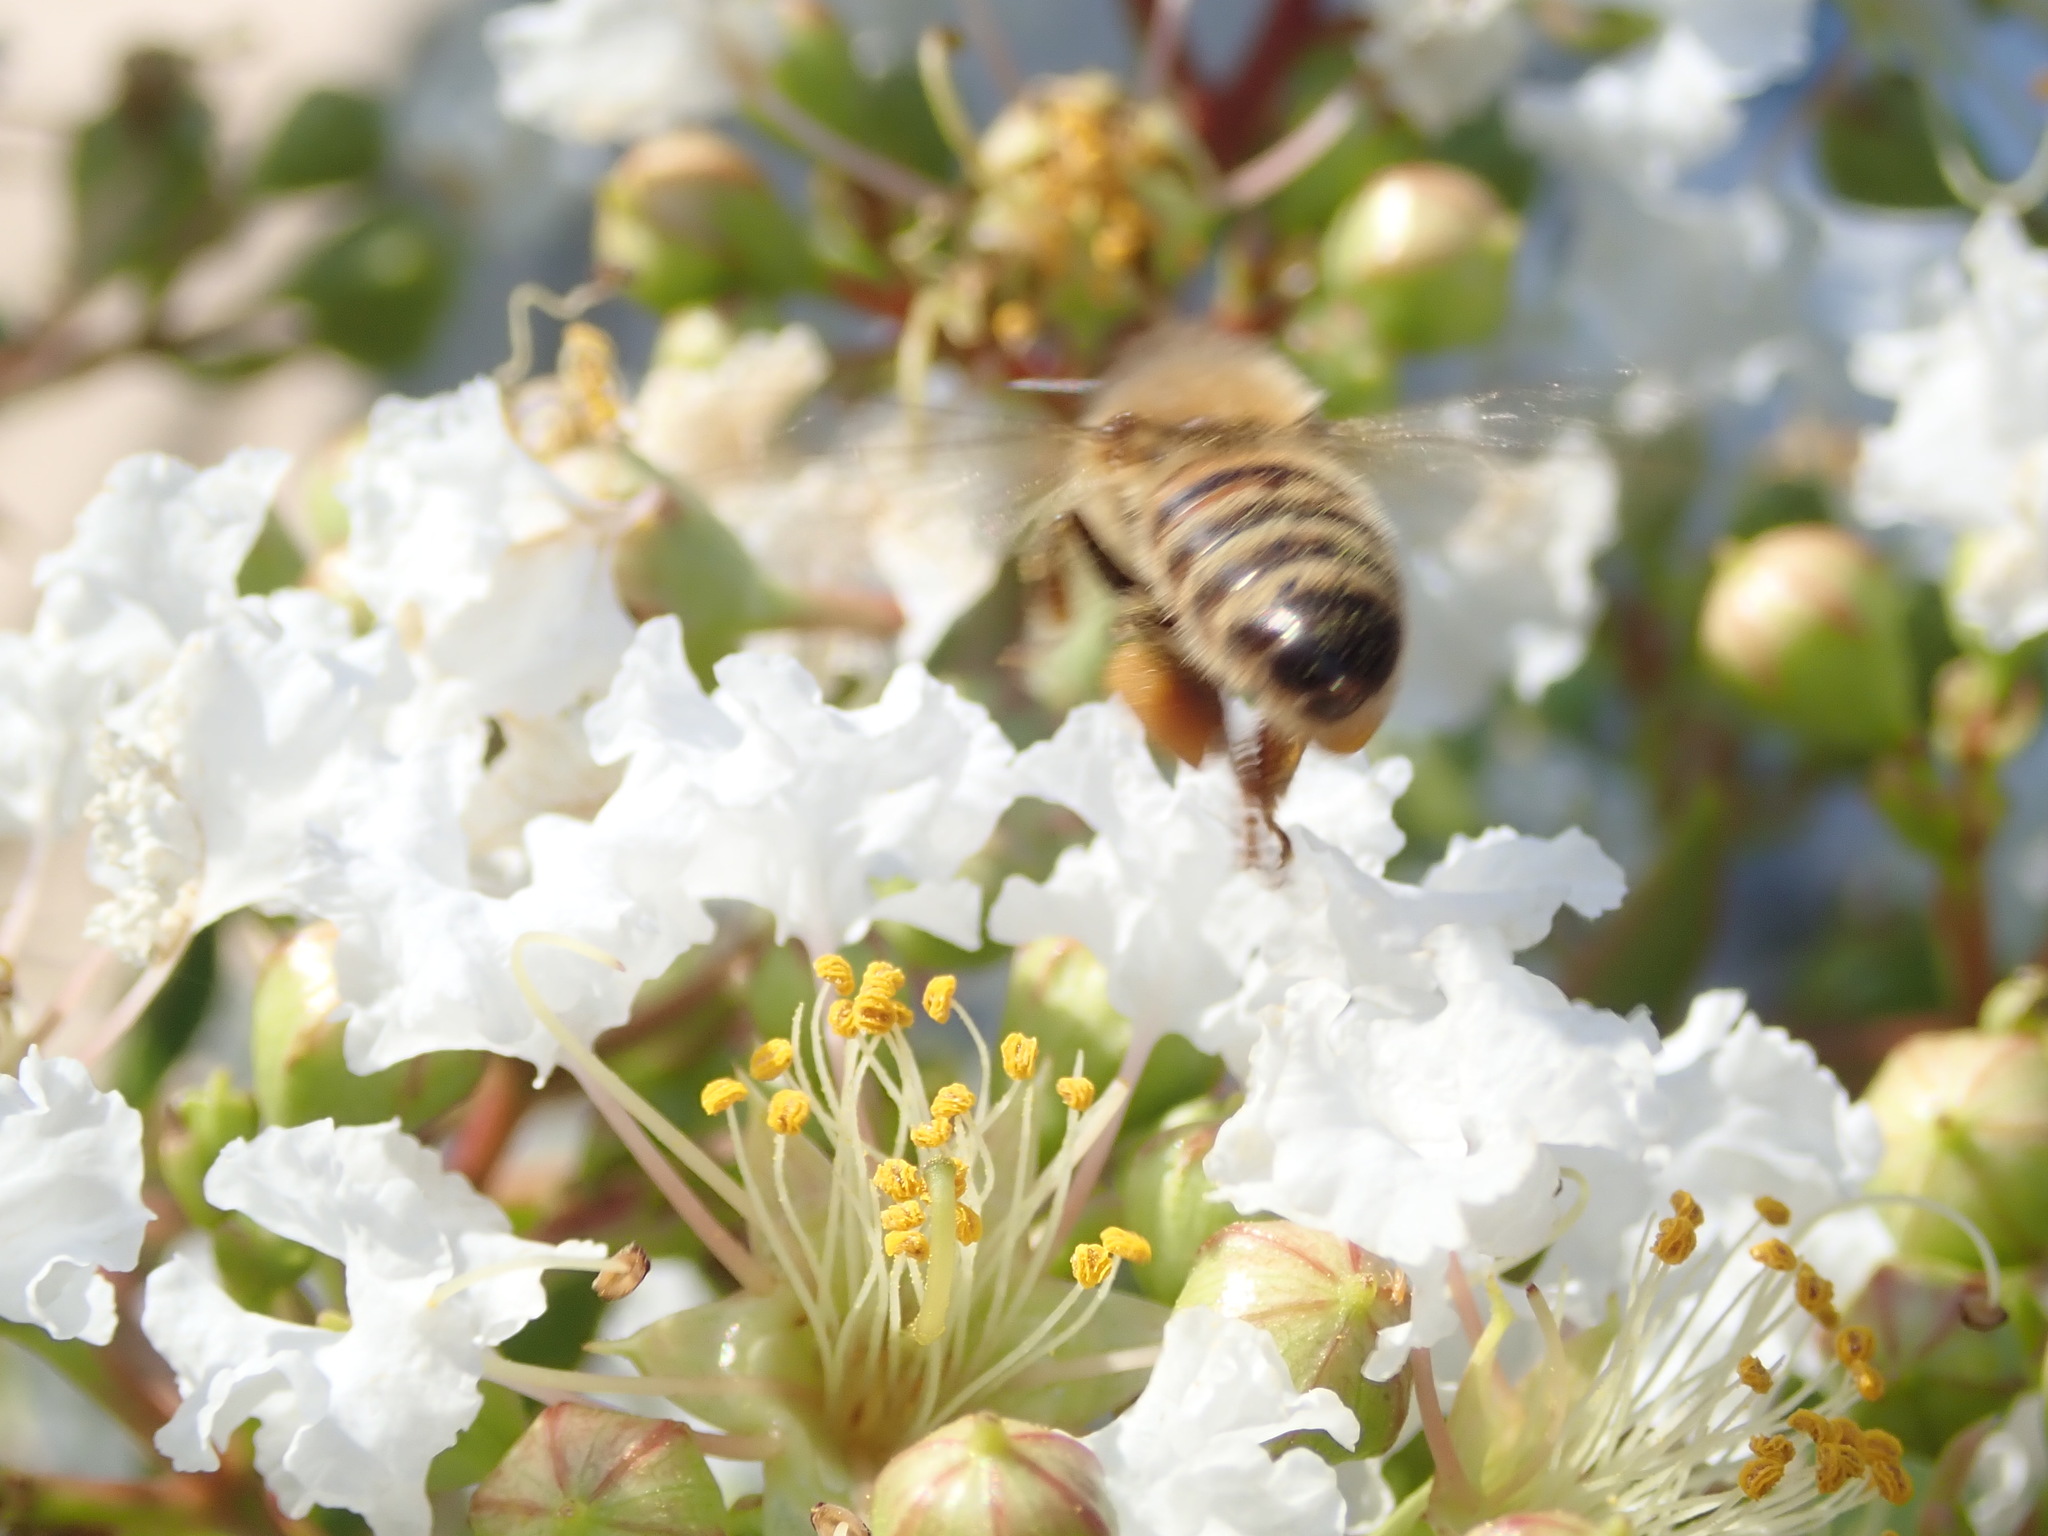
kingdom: Animalia
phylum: Arthropoda
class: Insecta
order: Hymenoptera
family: Apidae
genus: Apis
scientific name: Apis mellifera
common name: Honey bee
